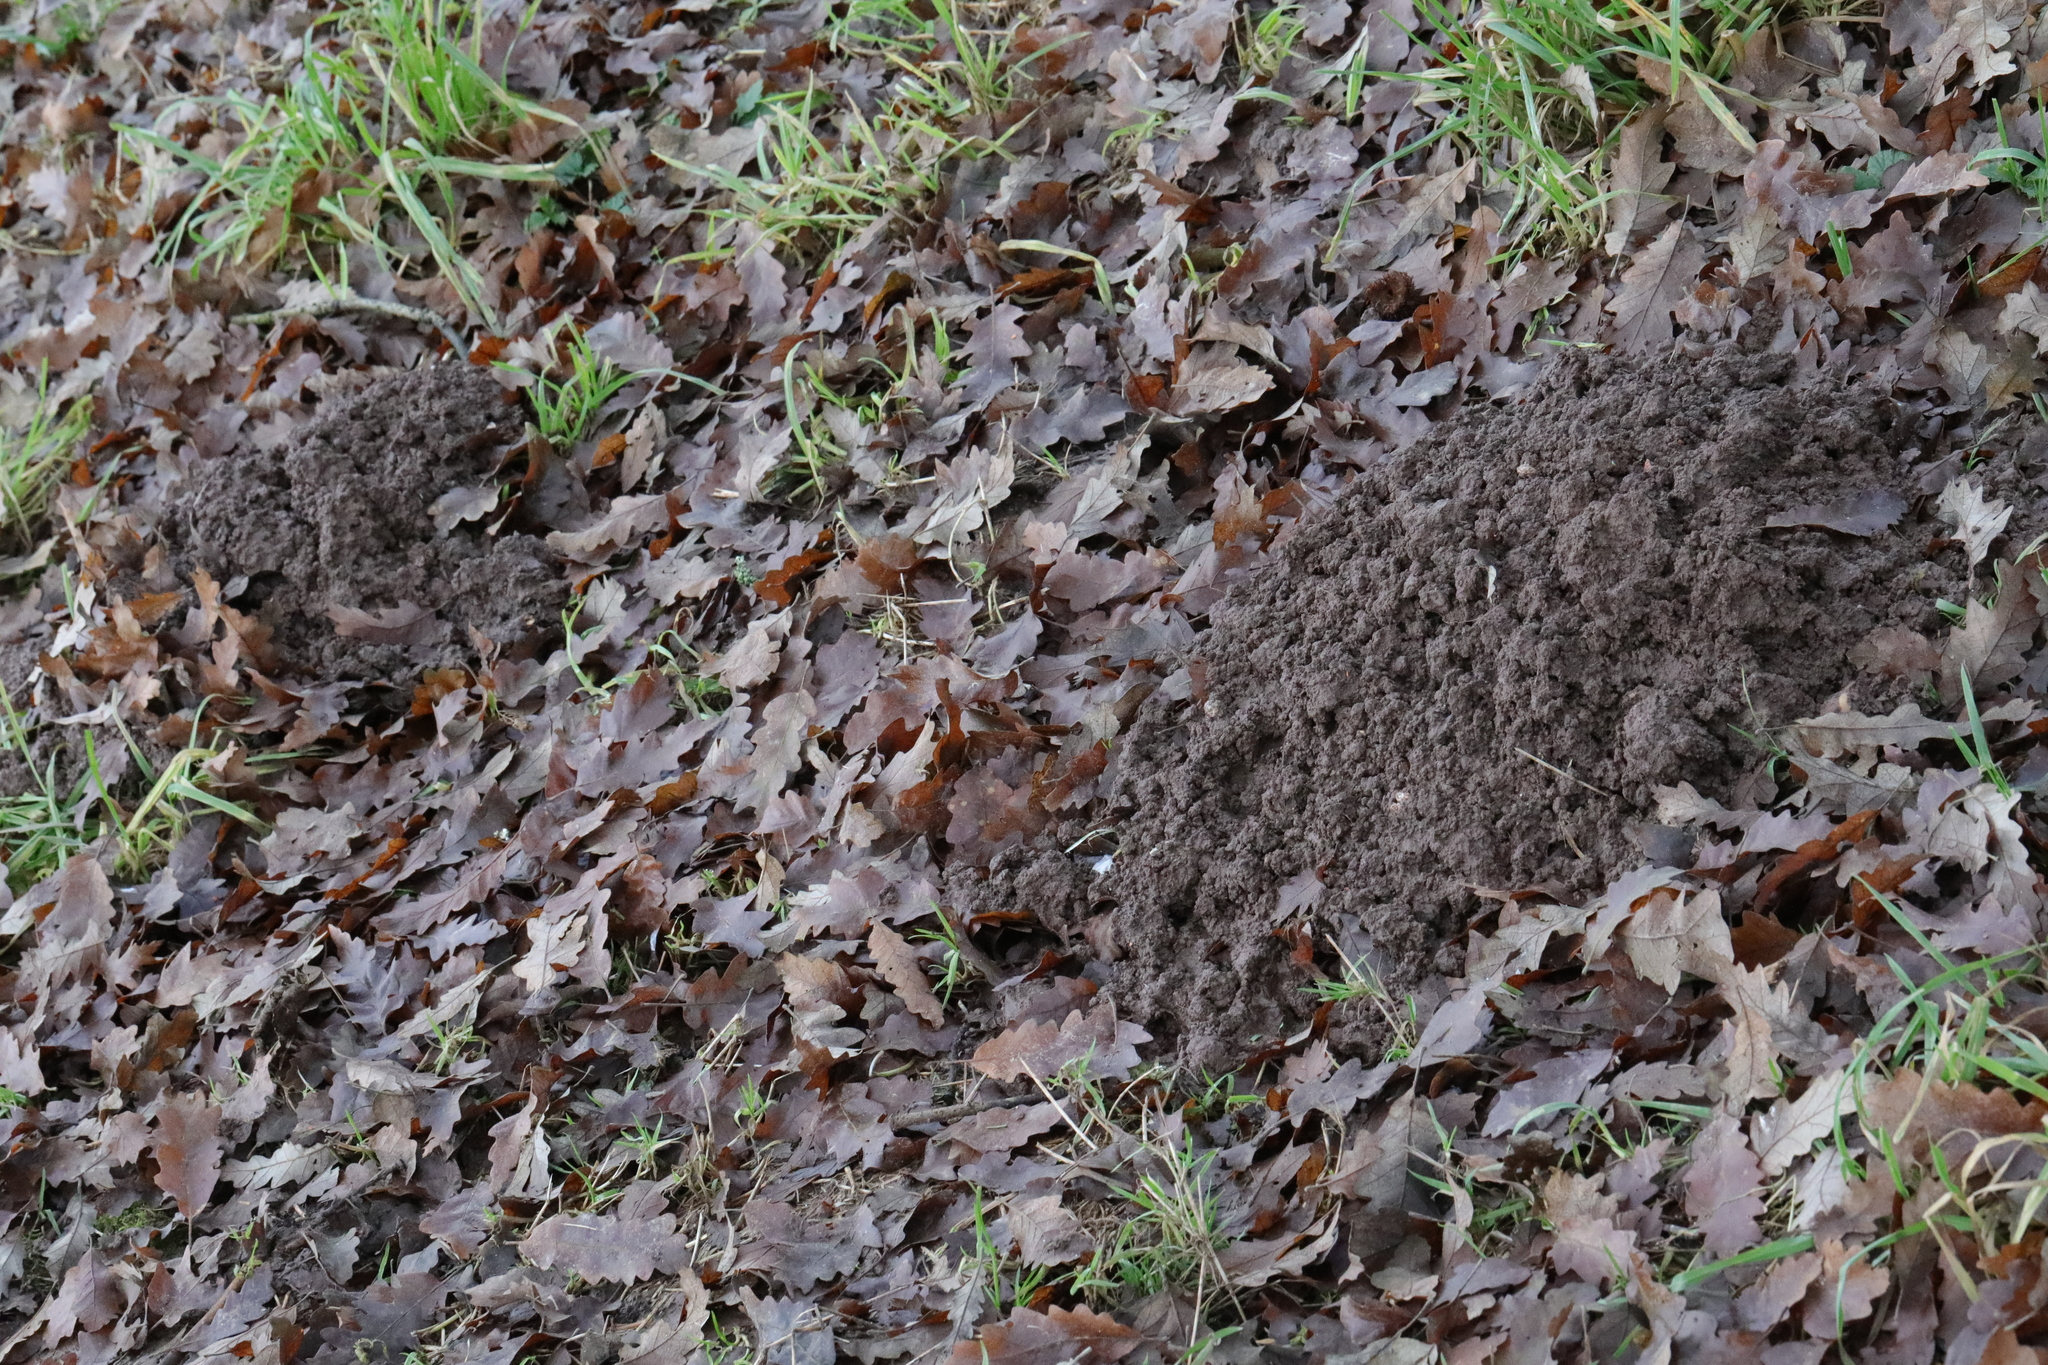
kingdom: Animalia
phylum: Chordata
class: Mammalia
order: Soricomorpha
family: Talpidae
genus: Talpa
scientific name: Talpa europaea
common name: European mole
